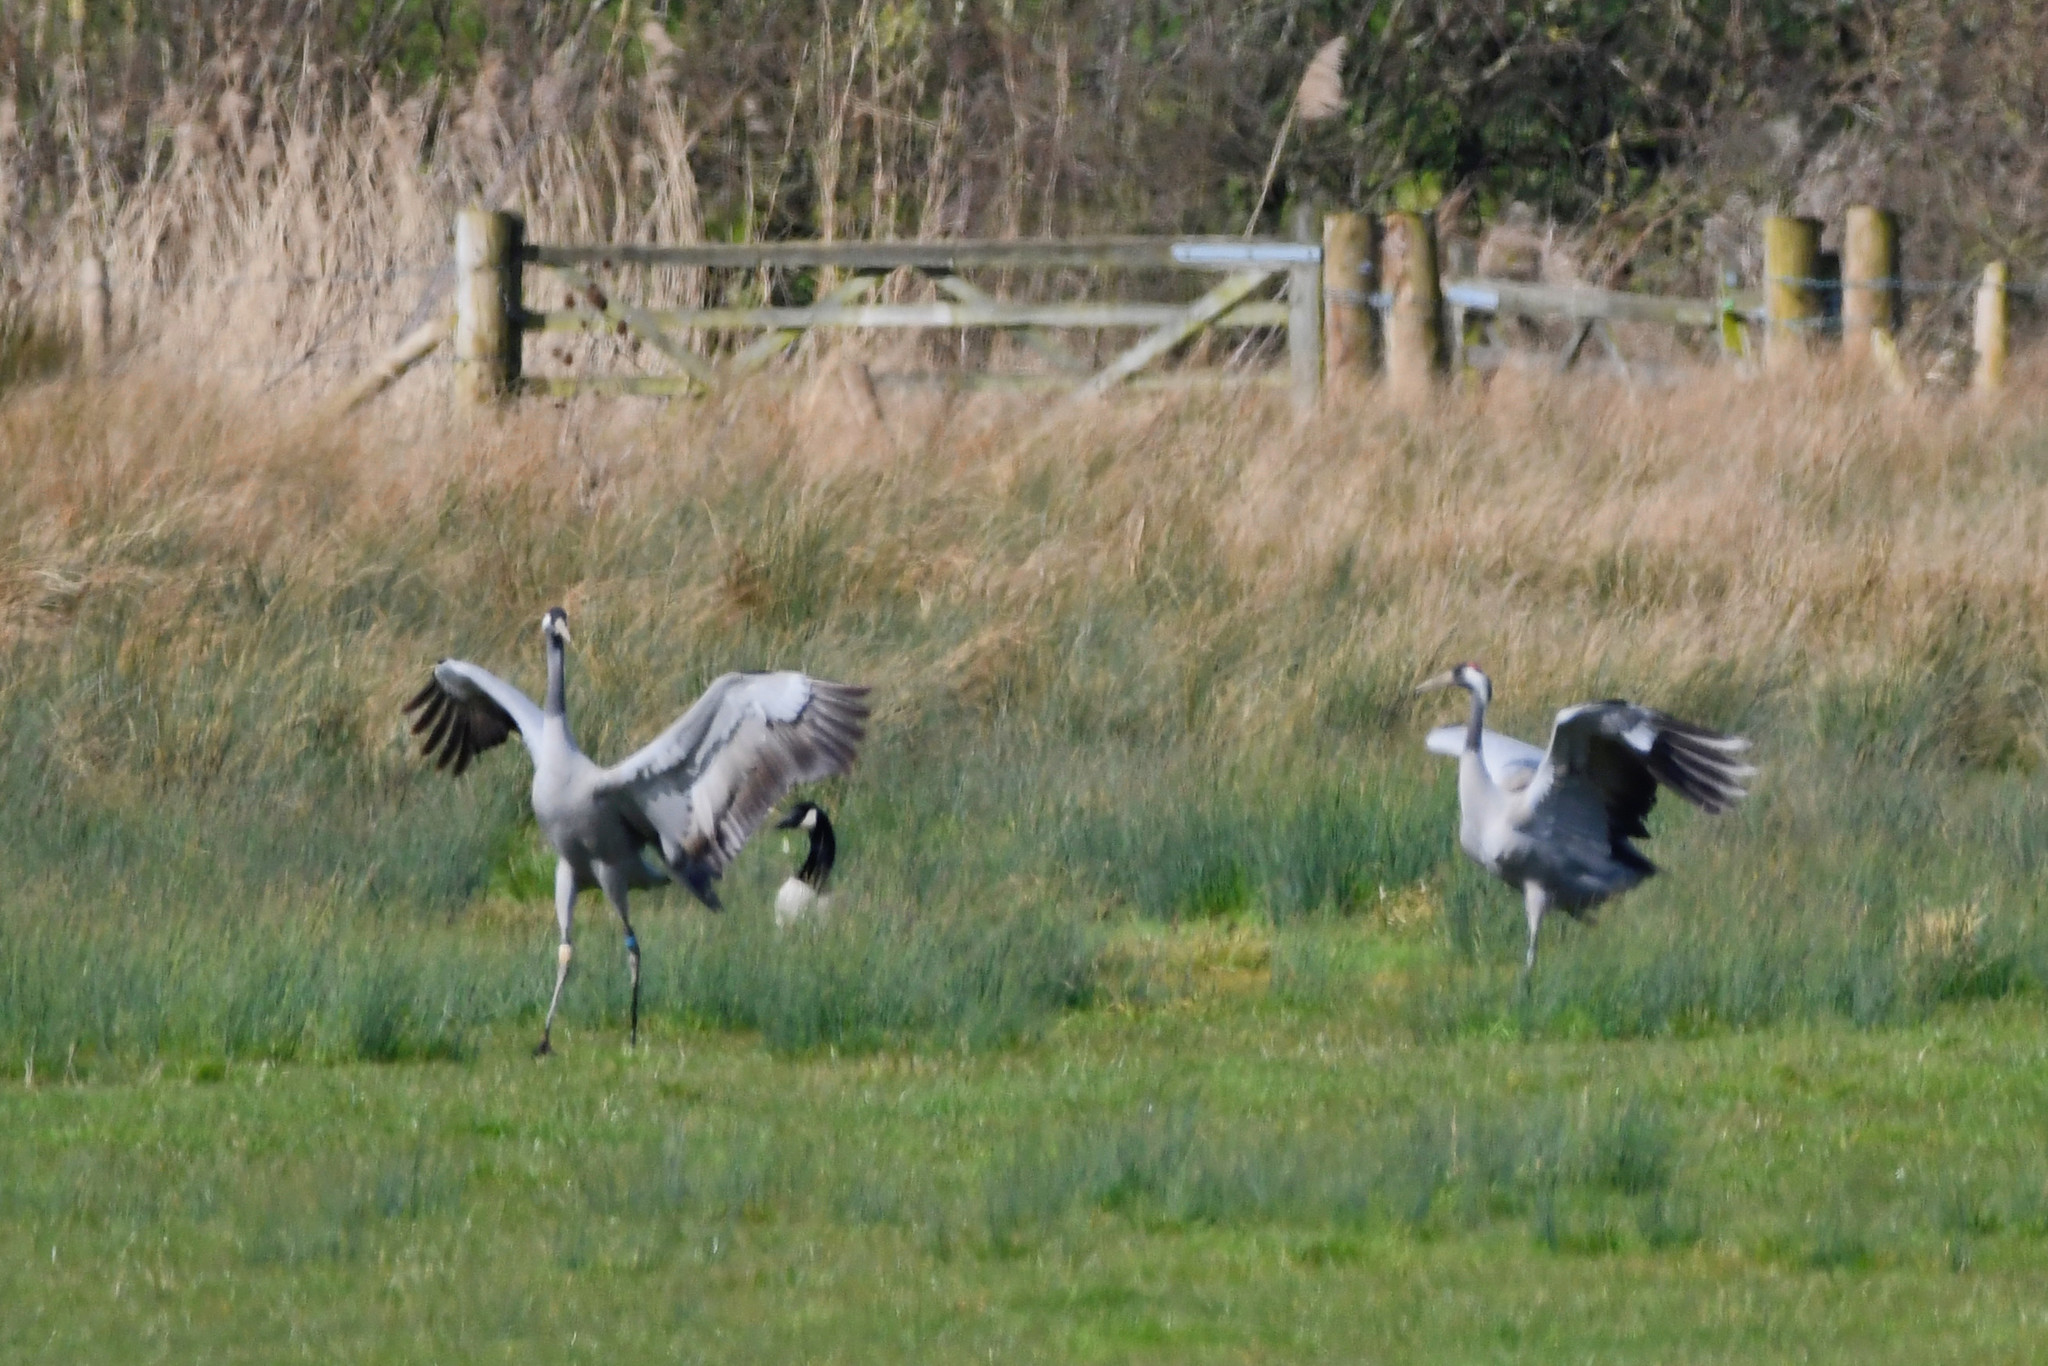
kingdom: Animalia
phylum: Chordata
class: Aves
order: Gruiformes
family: Gruidae
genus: Grus
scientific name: Grus grus
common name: Common crane
